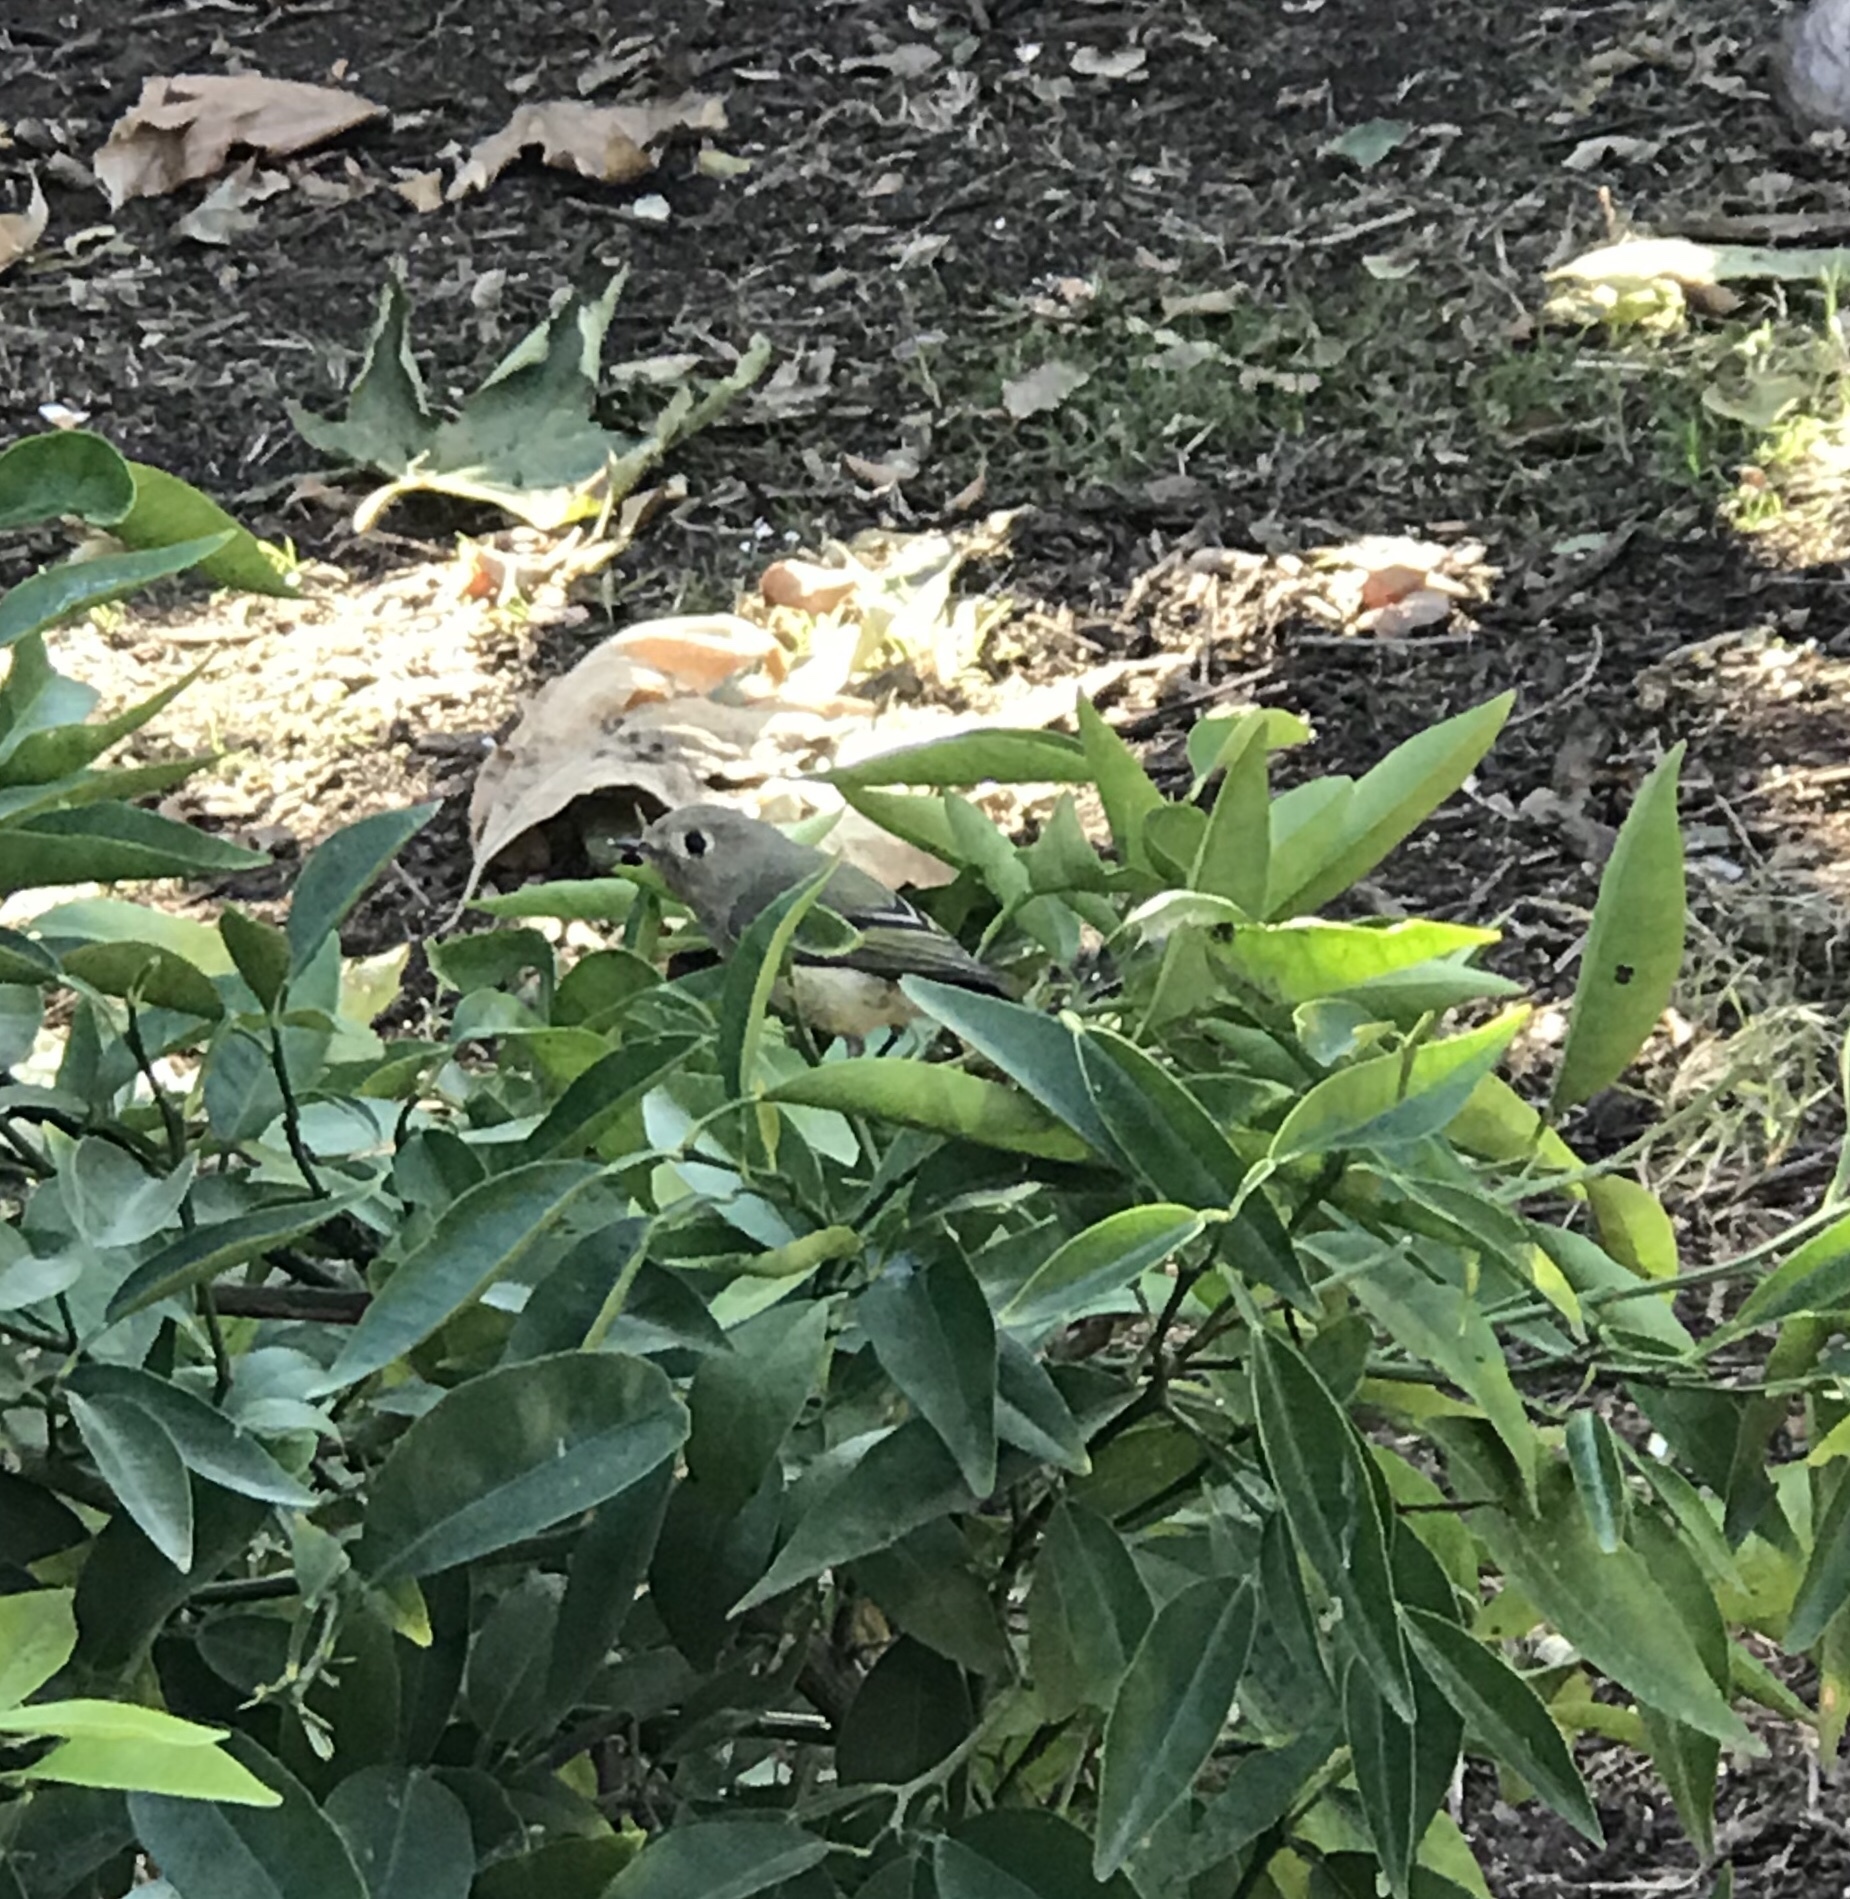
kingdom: Animalia
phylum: Chordata
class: Aves
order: Passeriformes
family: Regulidae
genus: Regulus
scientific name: Regulus calendula
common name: Ruby-crowned kinglet
